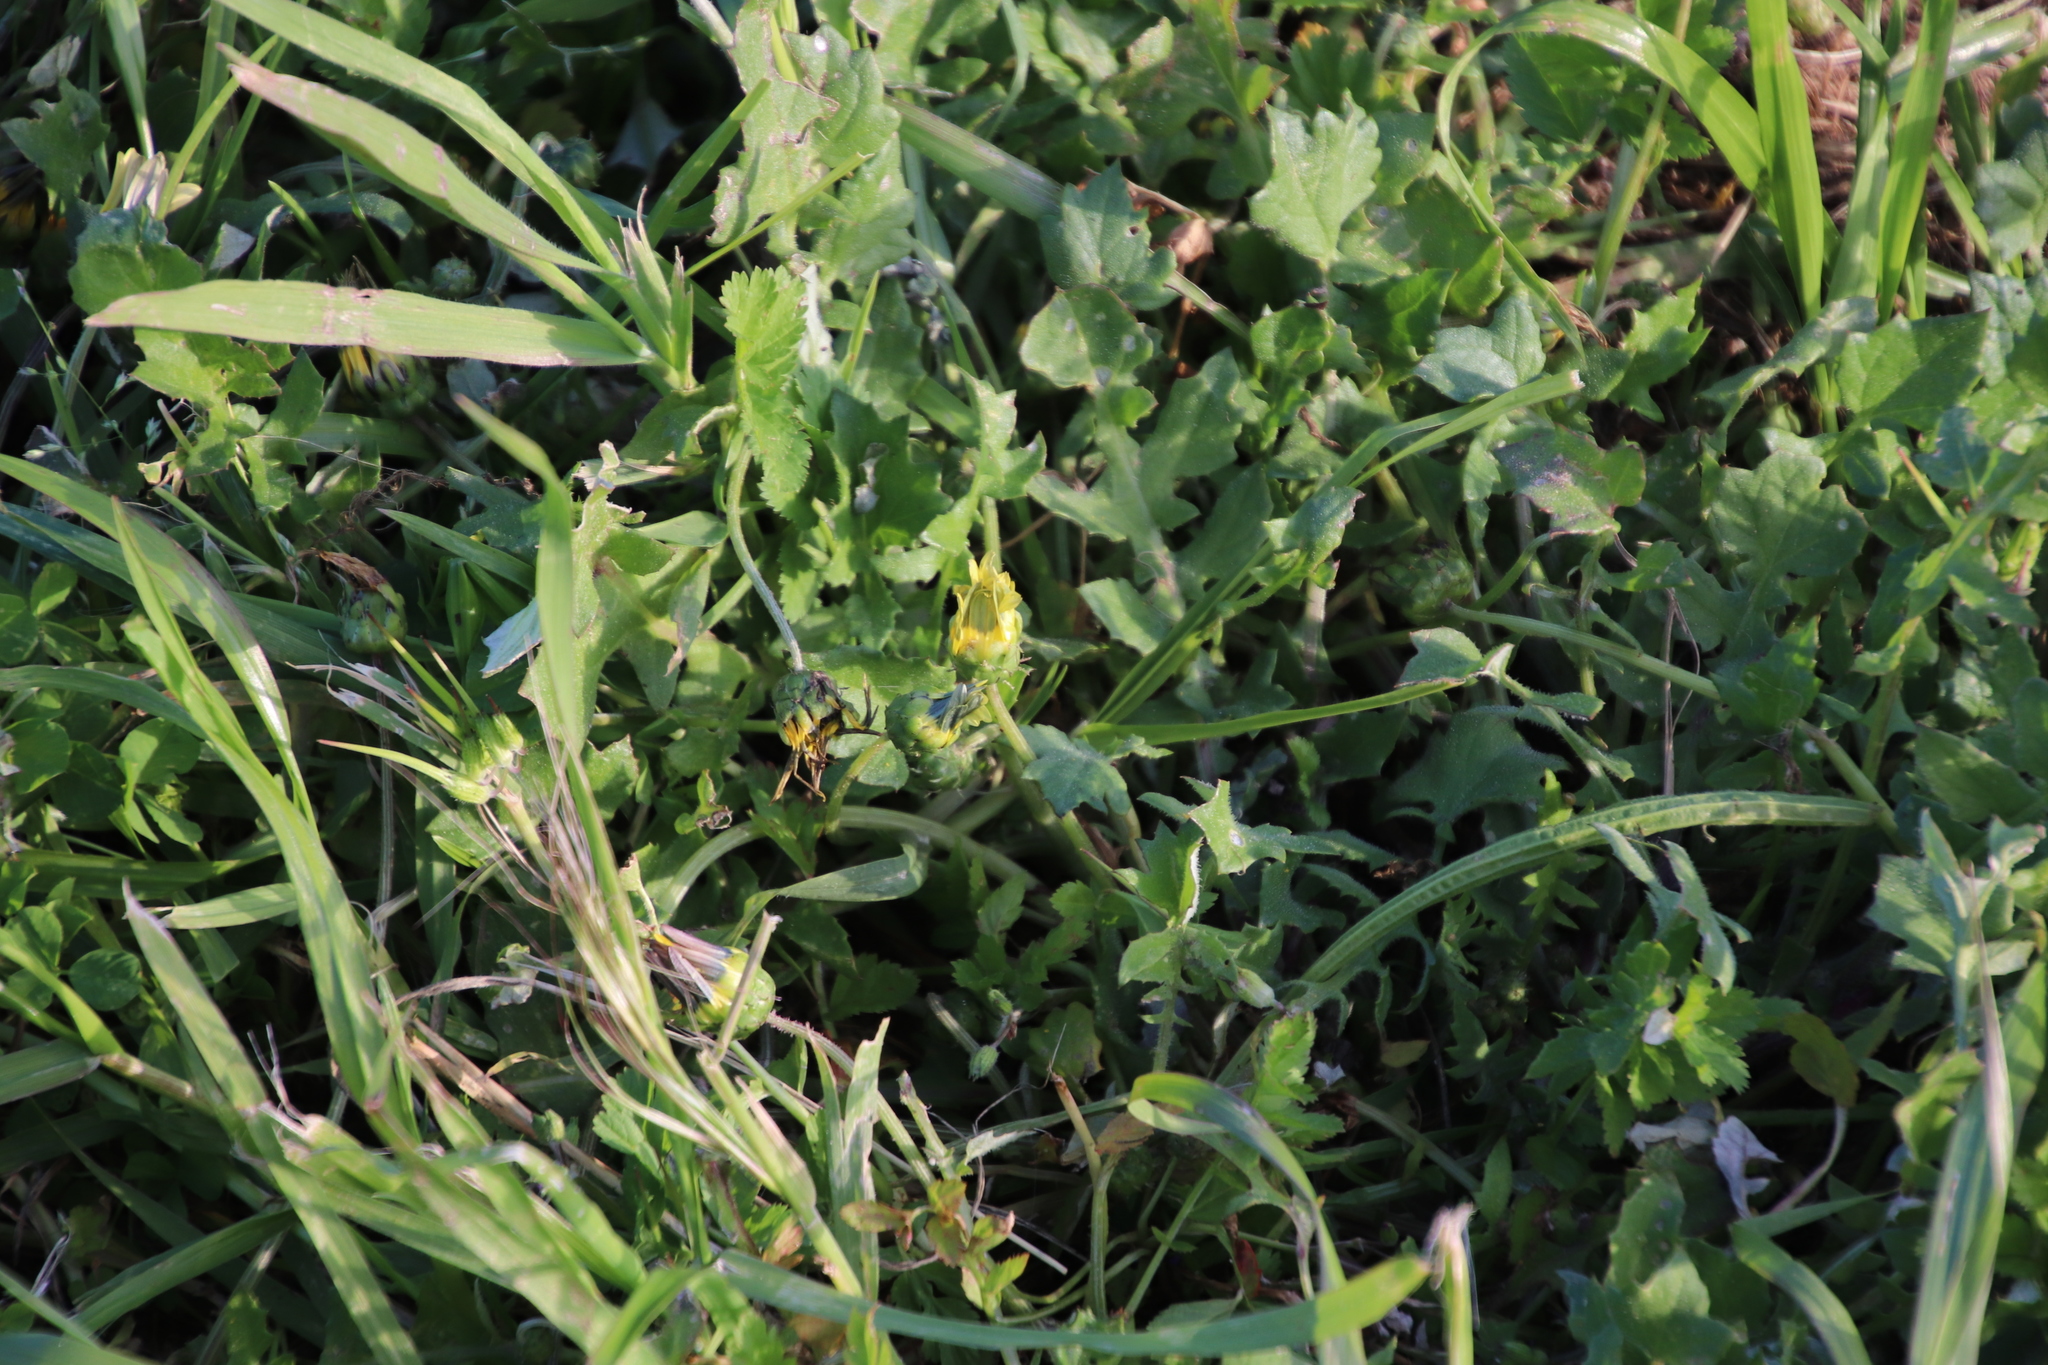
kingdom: Plantae
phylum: Tracheophyta
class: Magnoliopsida
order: Asterales
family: Asteraceae
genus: Arctotheca
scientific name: Arctotheca calendula
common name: Capeweed
